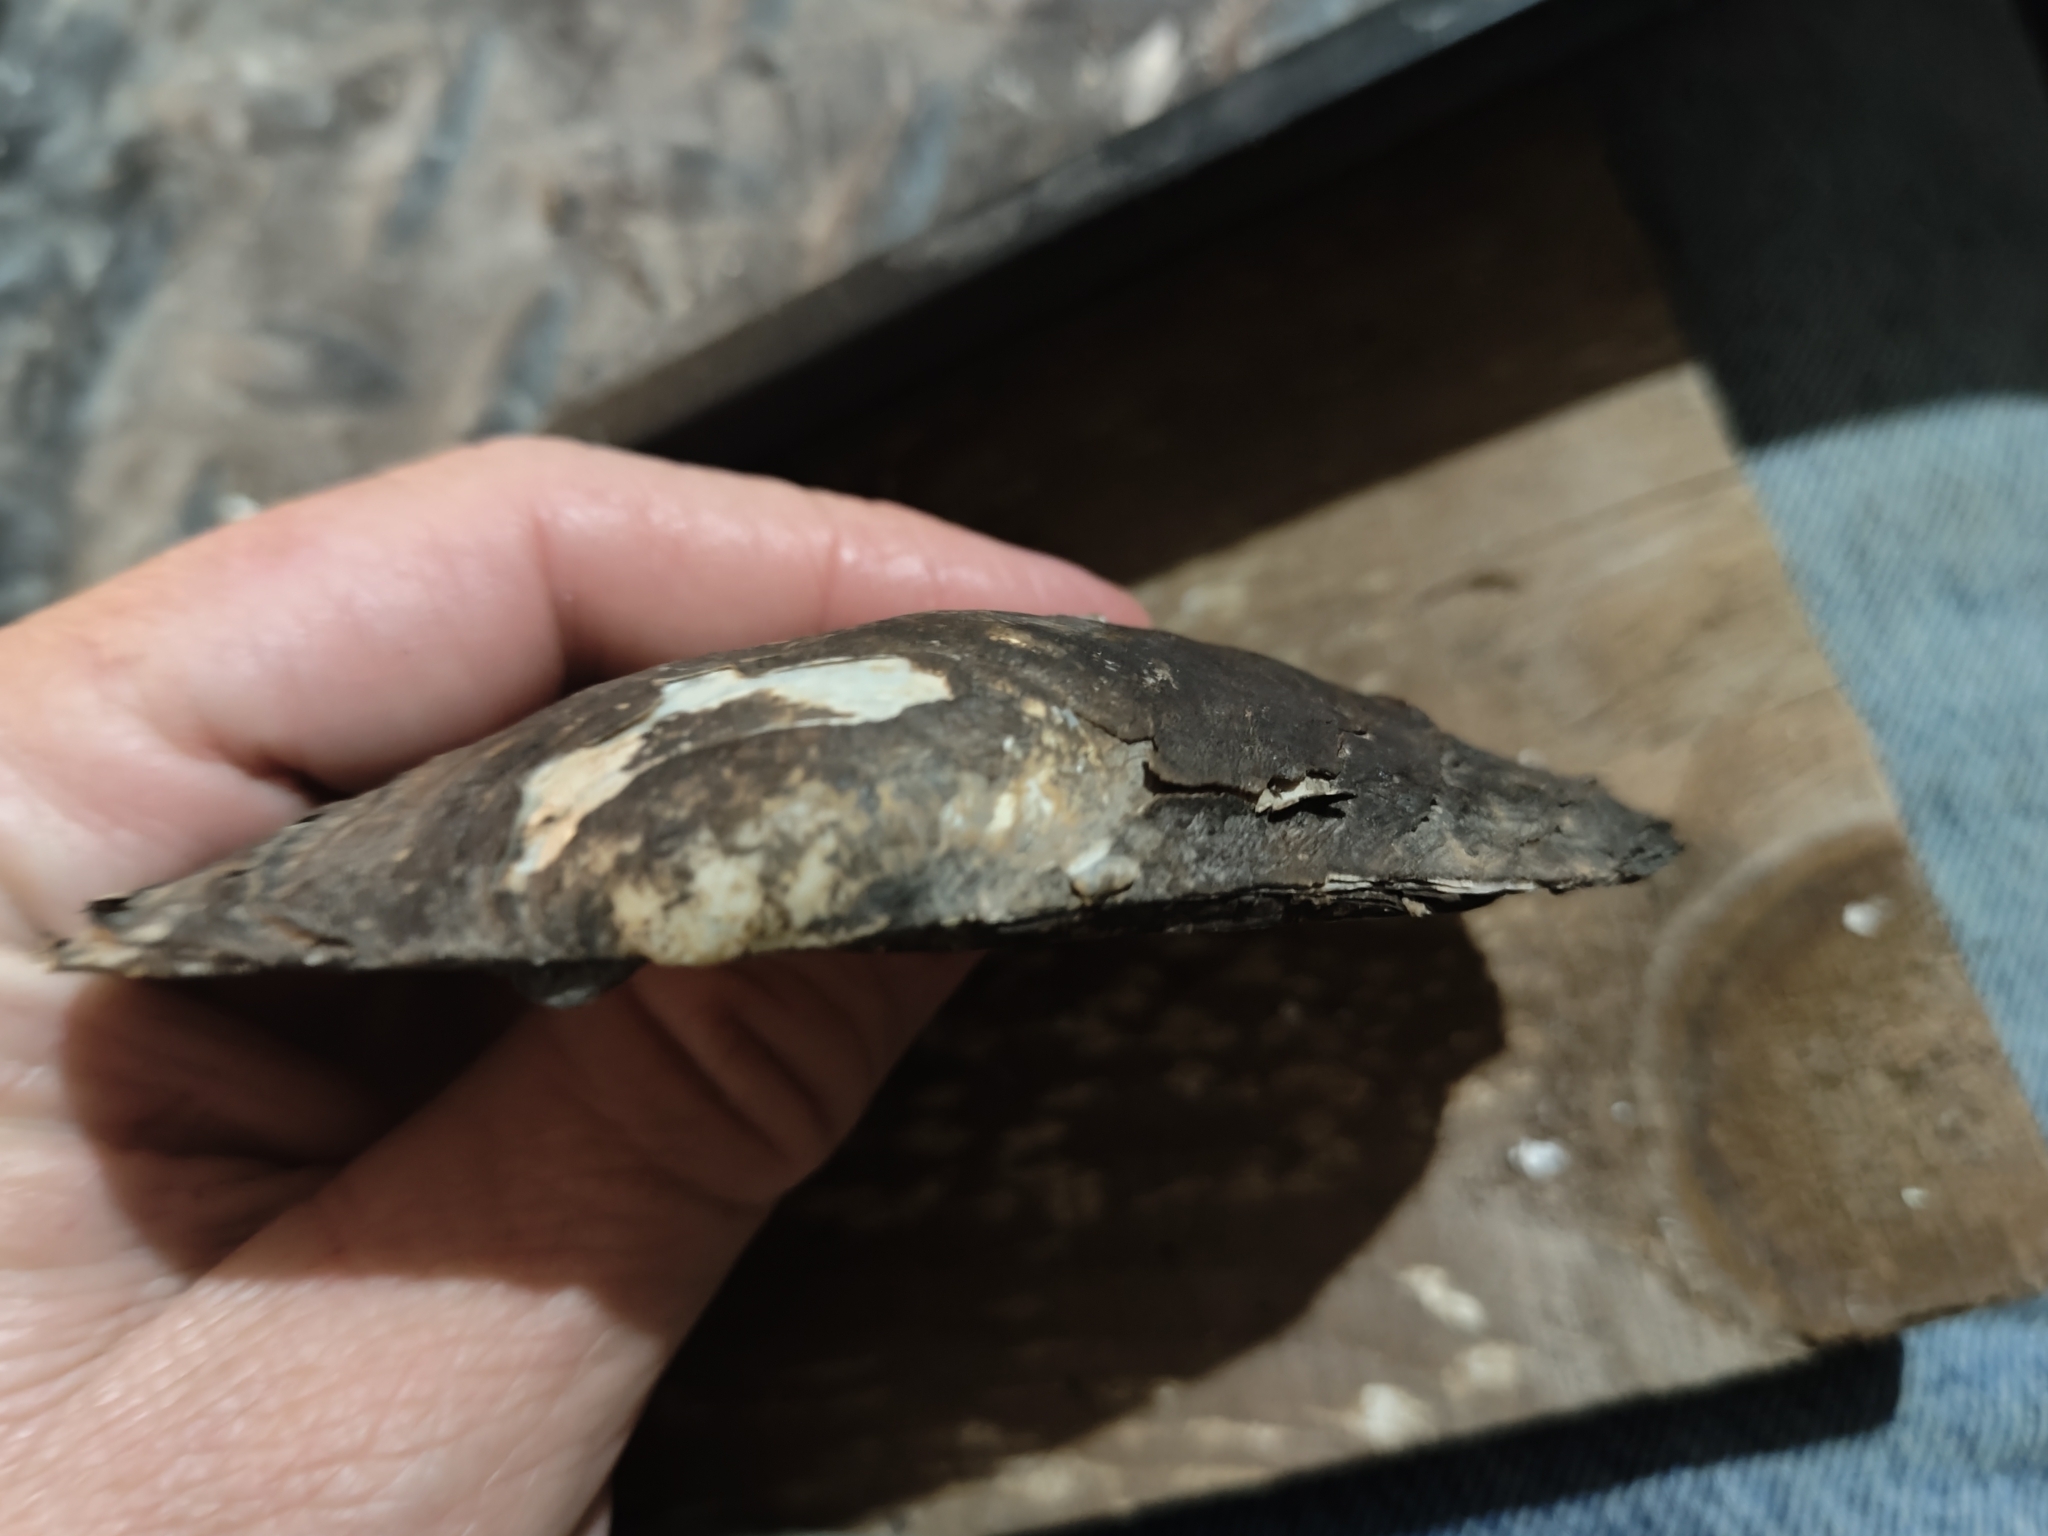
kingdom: Animalia
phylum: Mollusca
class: Bivalvia
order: Unionida
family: Unionidae
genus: Potamilus
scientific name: Potamilus fragilis
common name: Fragile papershell
